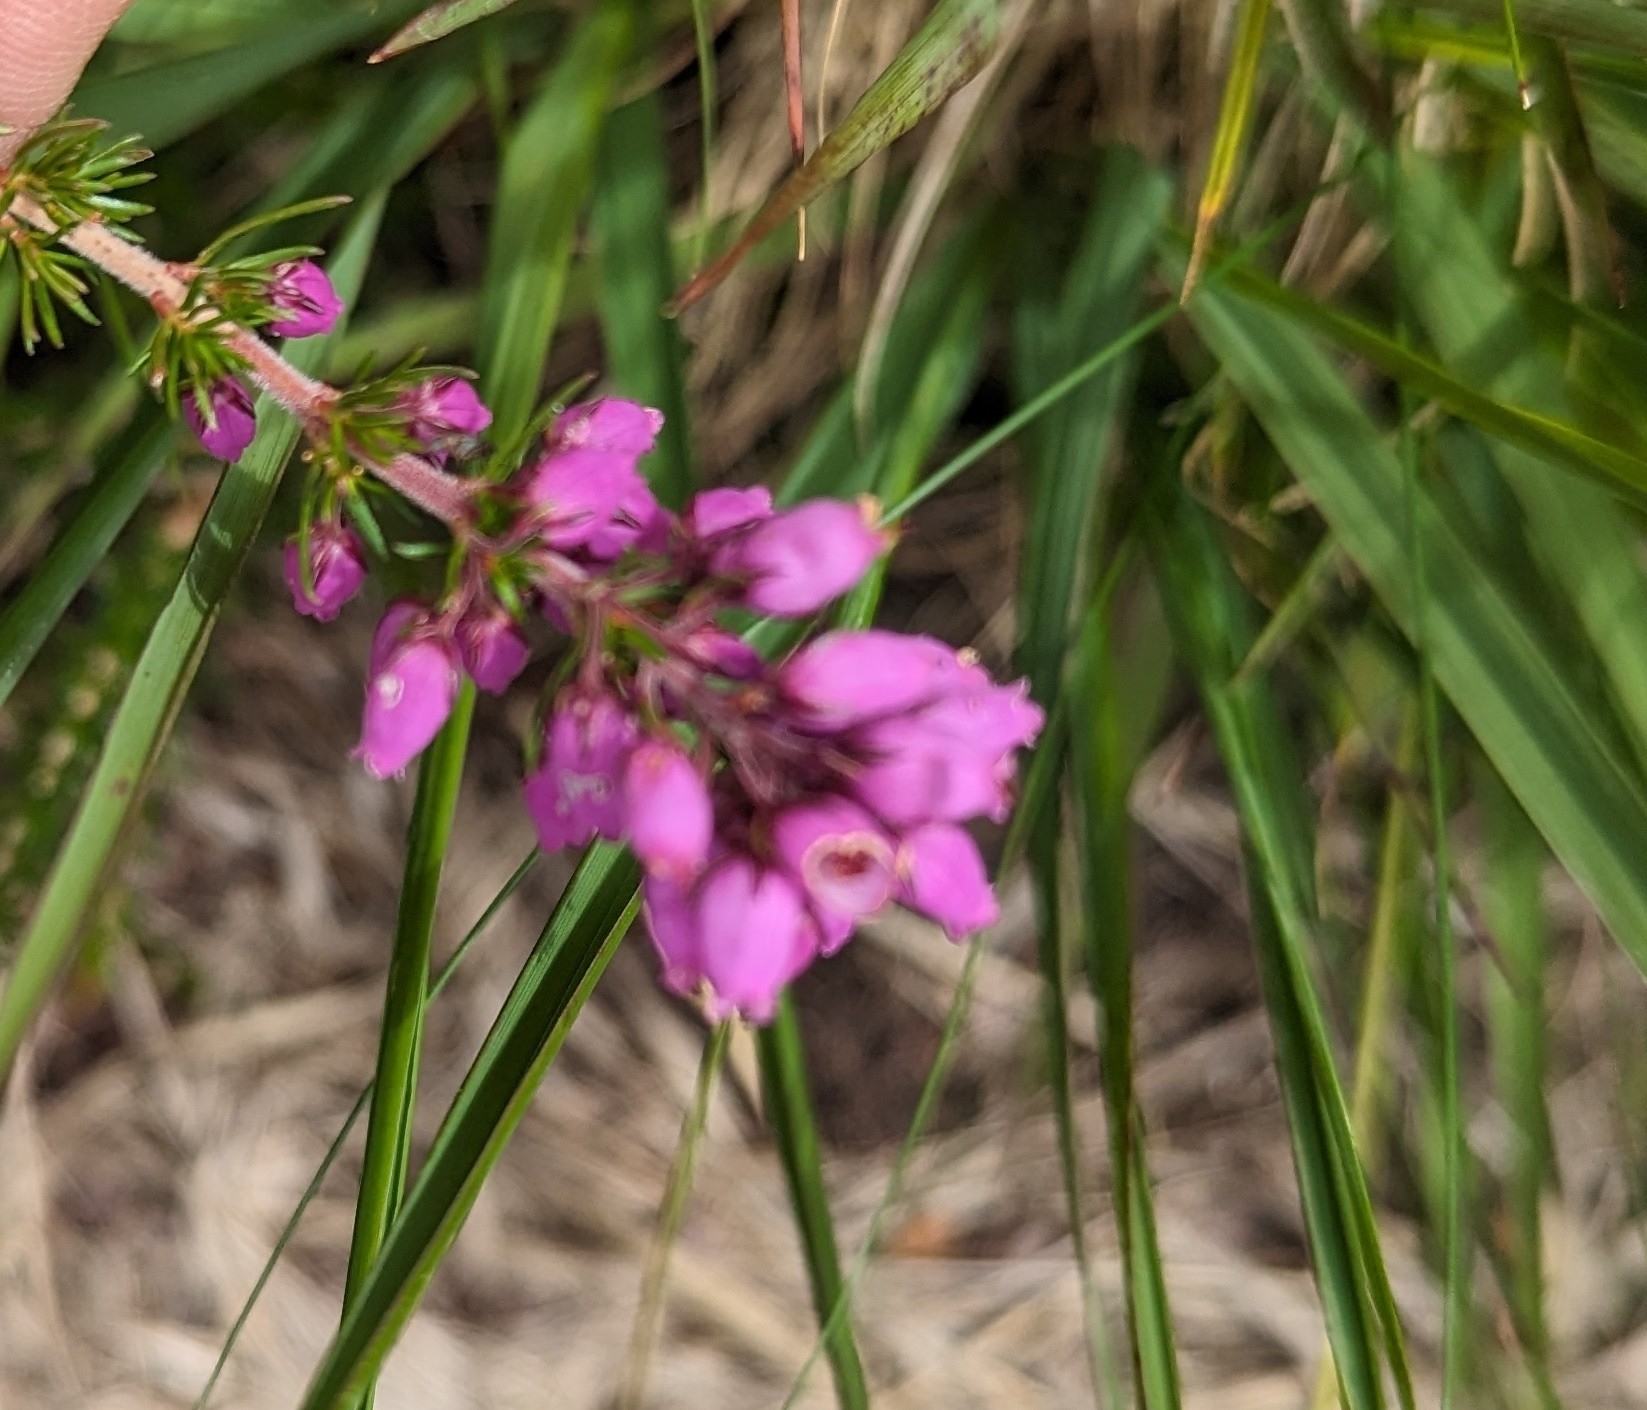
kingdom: Plantae
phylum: Tracheophyta
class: Magnoliopsida
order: Ericales
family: Ericaceae
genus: Erica
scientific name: Erica cinerea
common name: Bell heather
